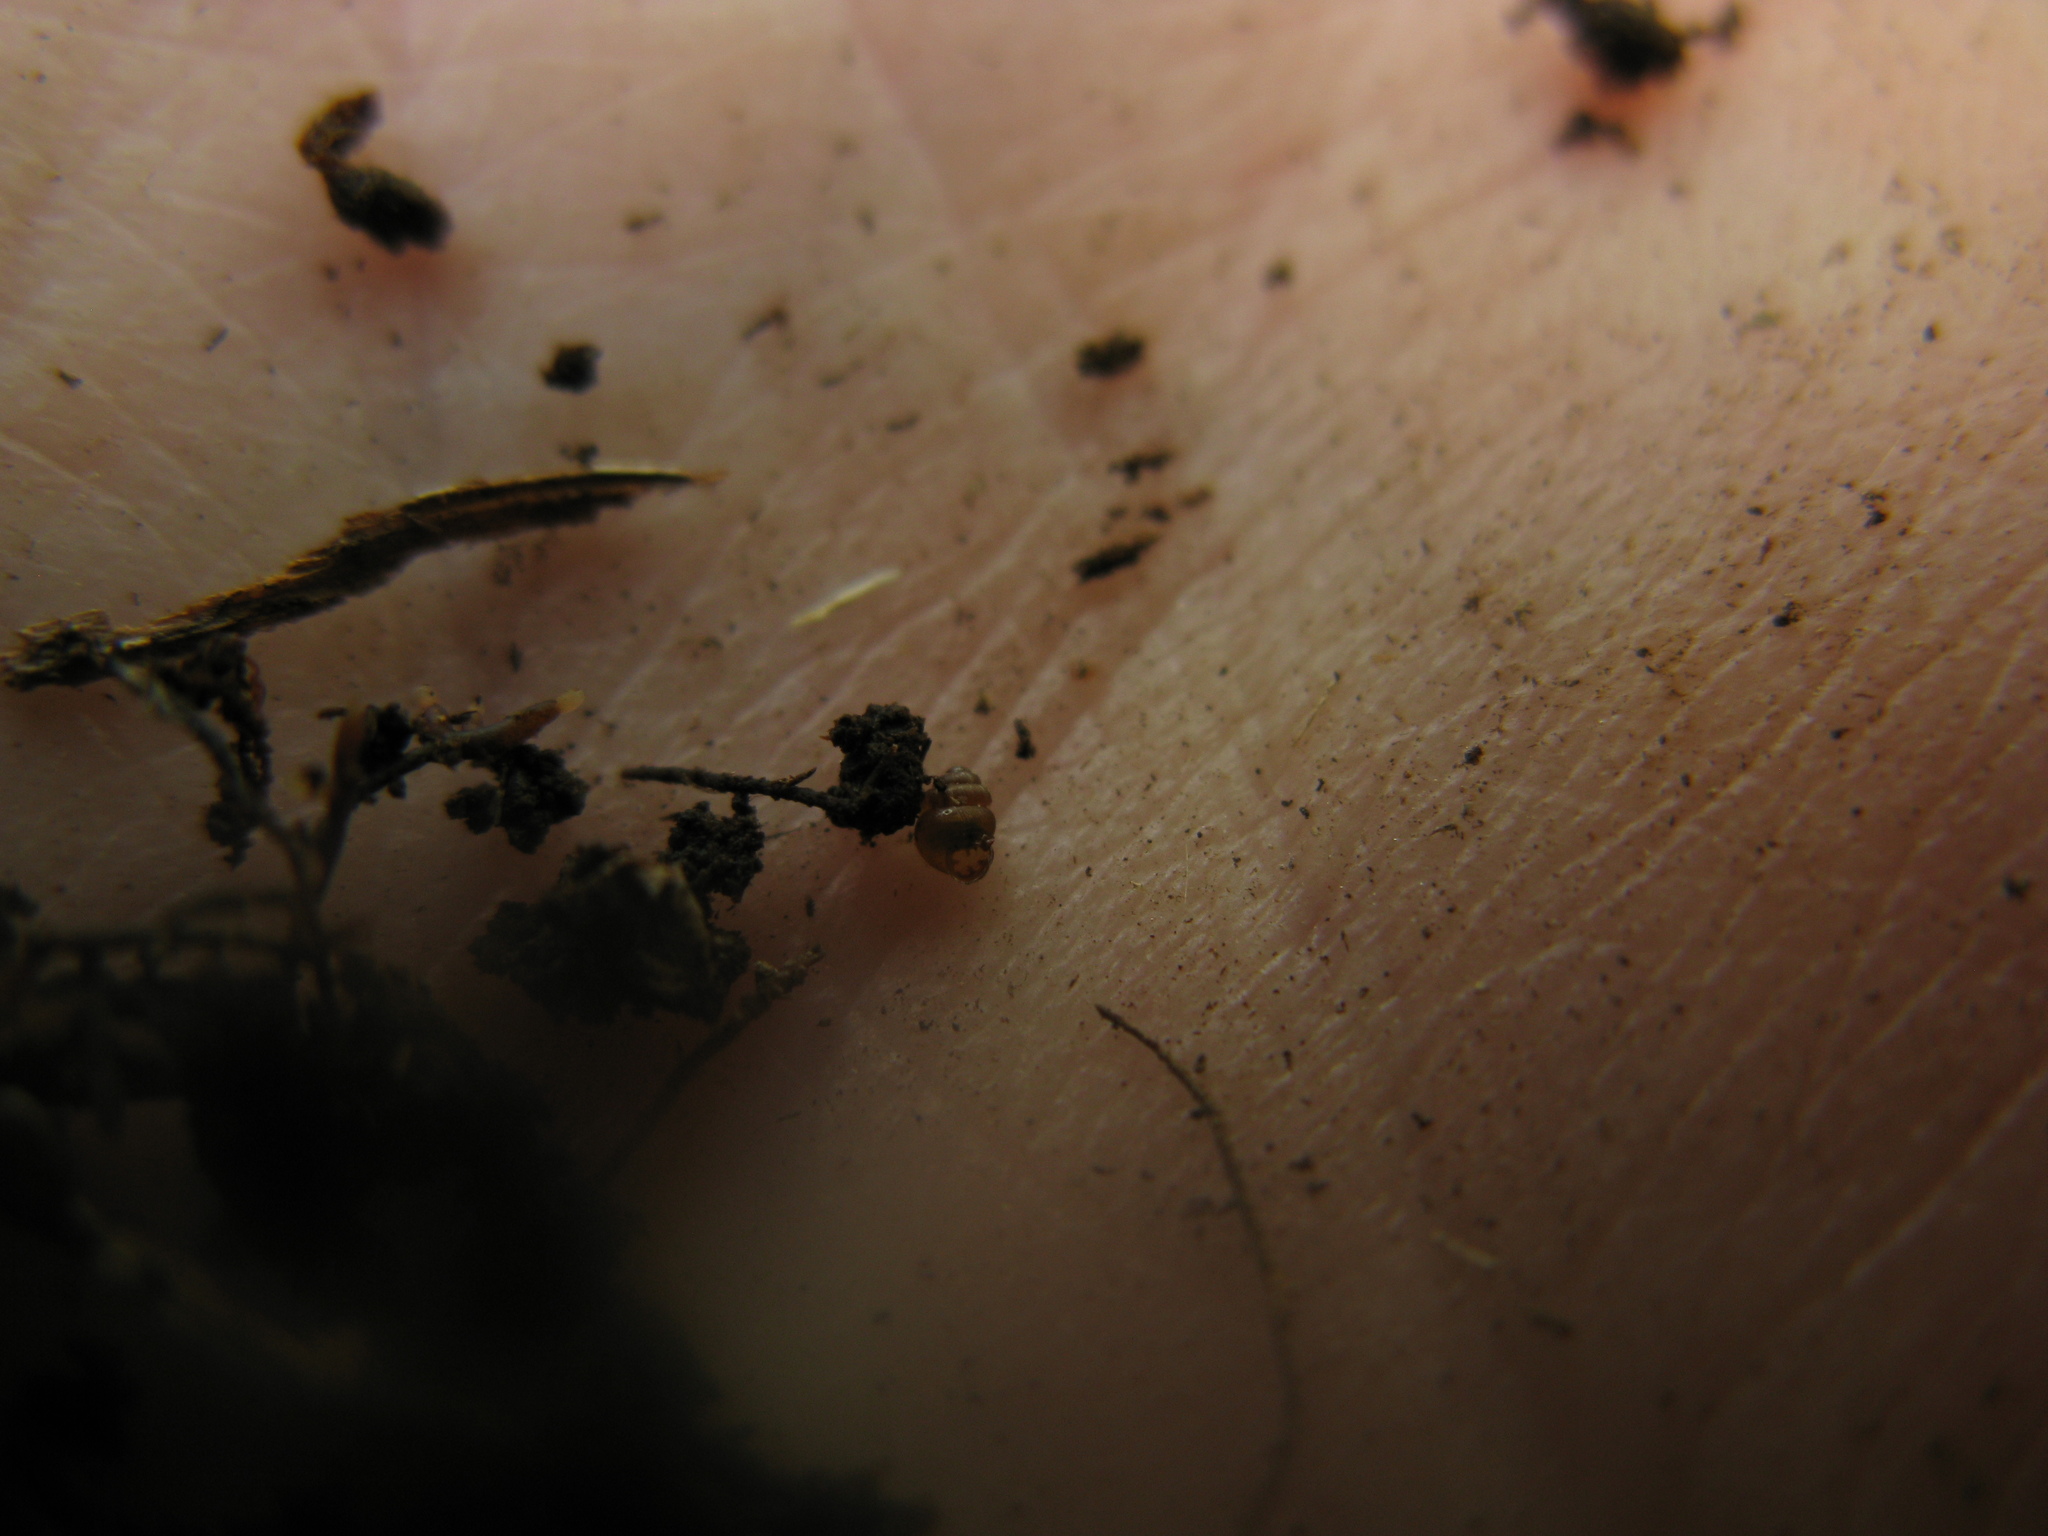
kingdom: Animalia
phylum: Mollusca
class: Gastropoda
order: Stylommatophora
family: Vertiginidae
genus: Vertigo
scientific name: Vertigo substriata
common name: Striated whorl snail
